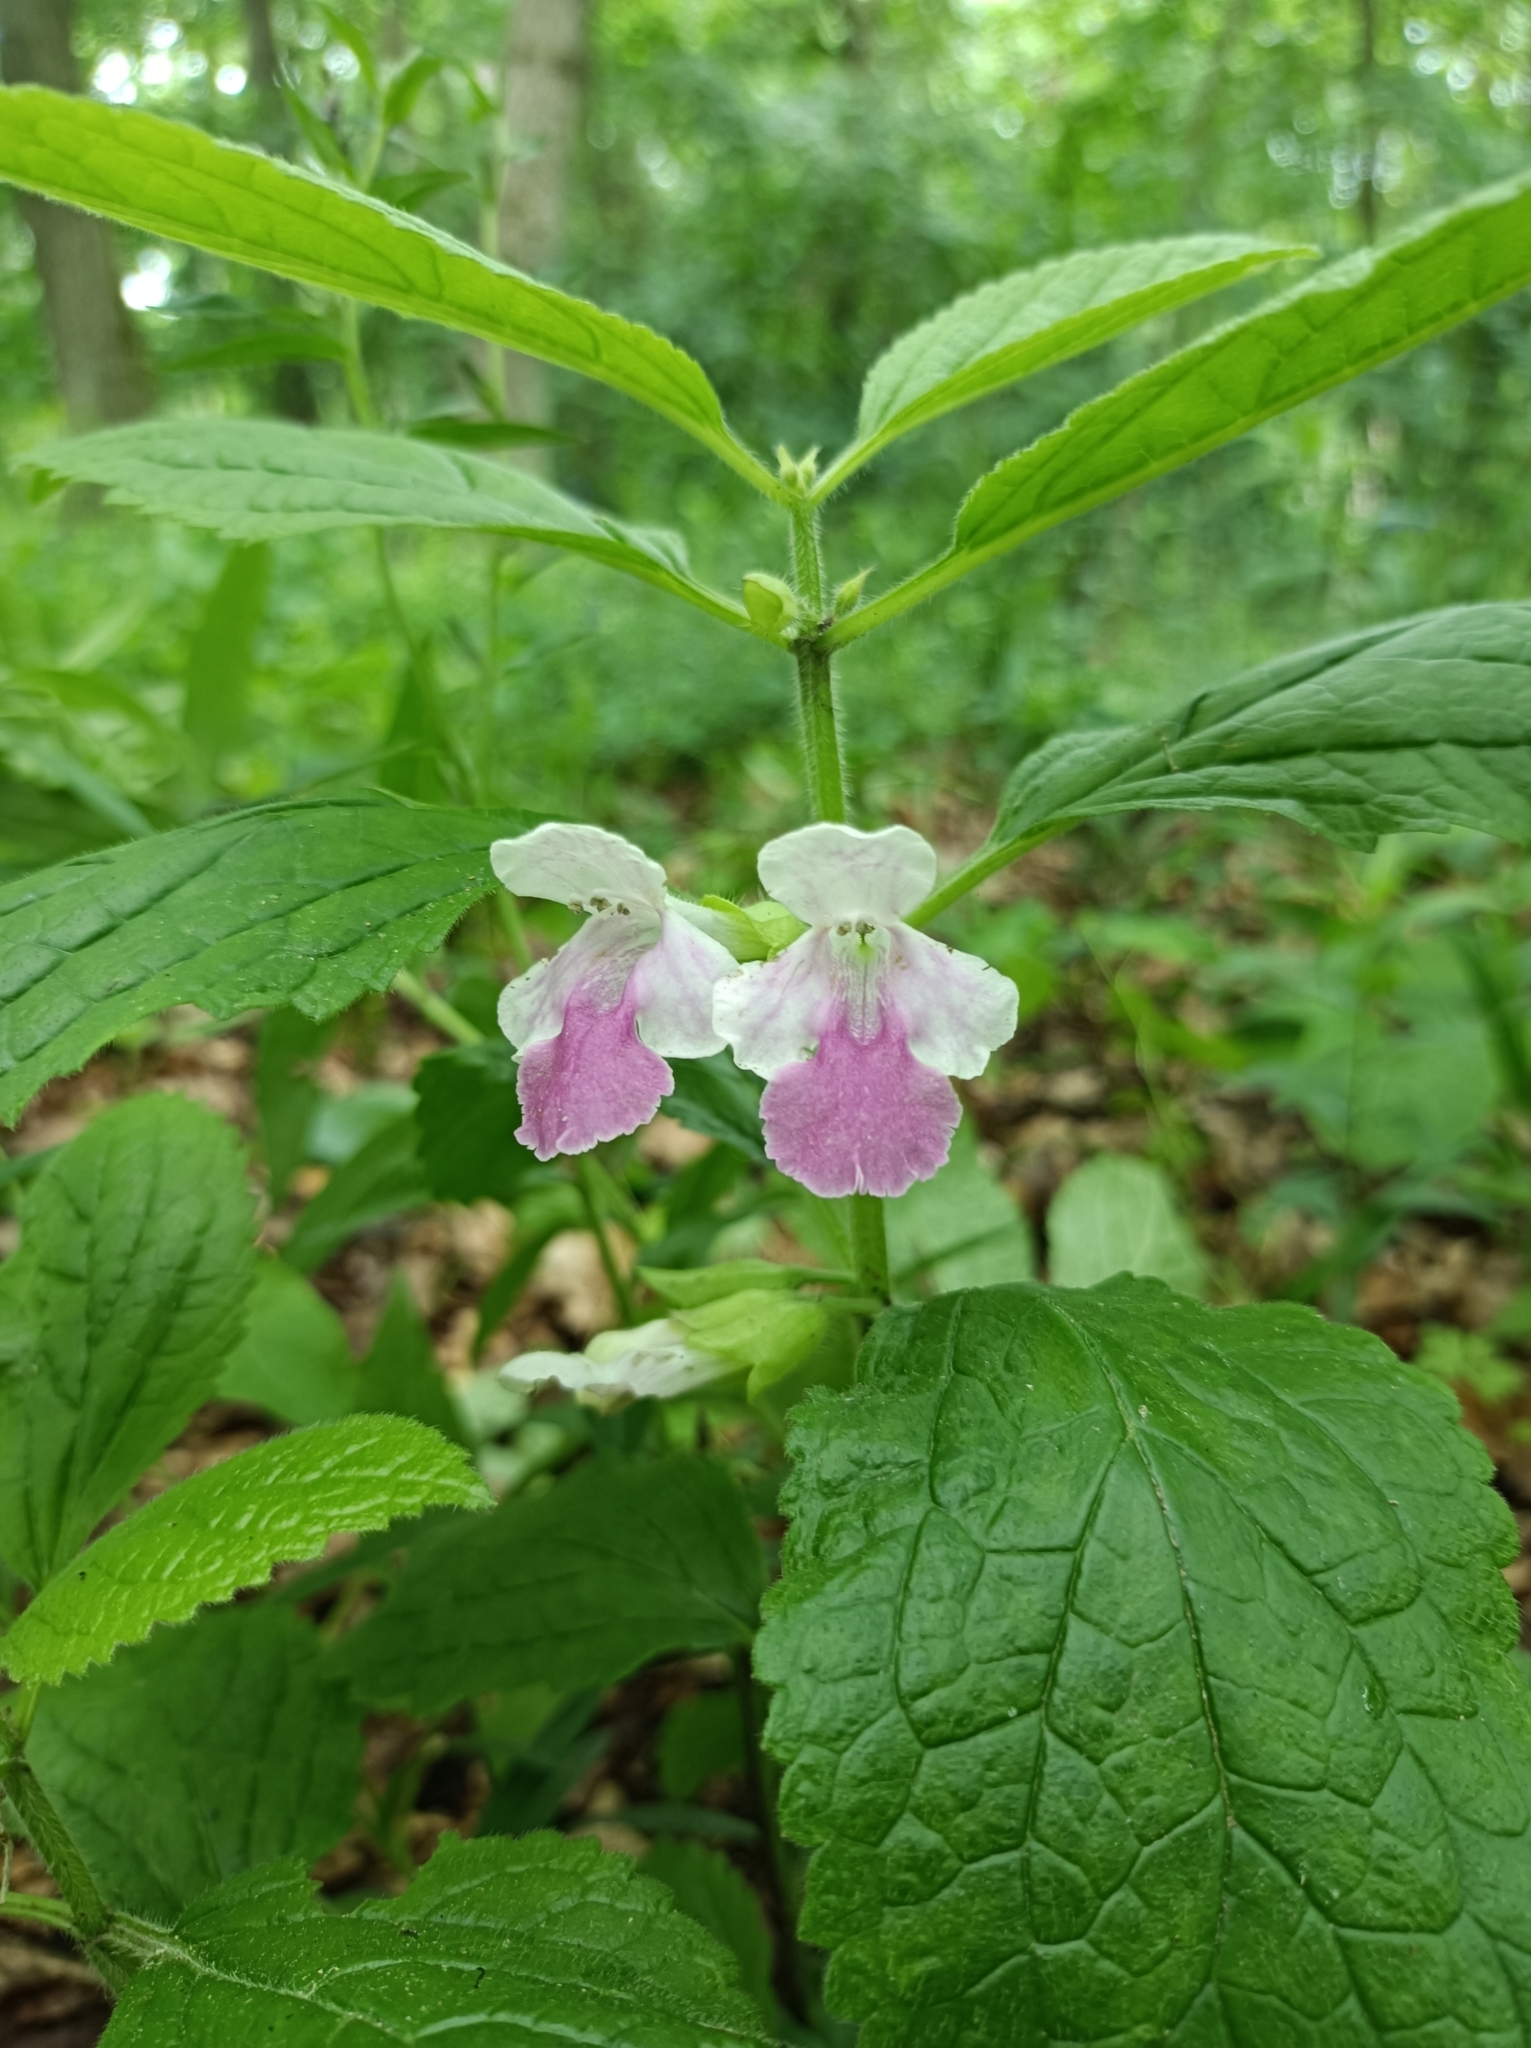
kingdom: Plantae
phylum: Tracheophyta
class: Magnoliopsida
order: Lamiales
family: Lamiaceae
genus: Melittis
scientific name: Melittis melissophyllum
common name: Bastard balm
